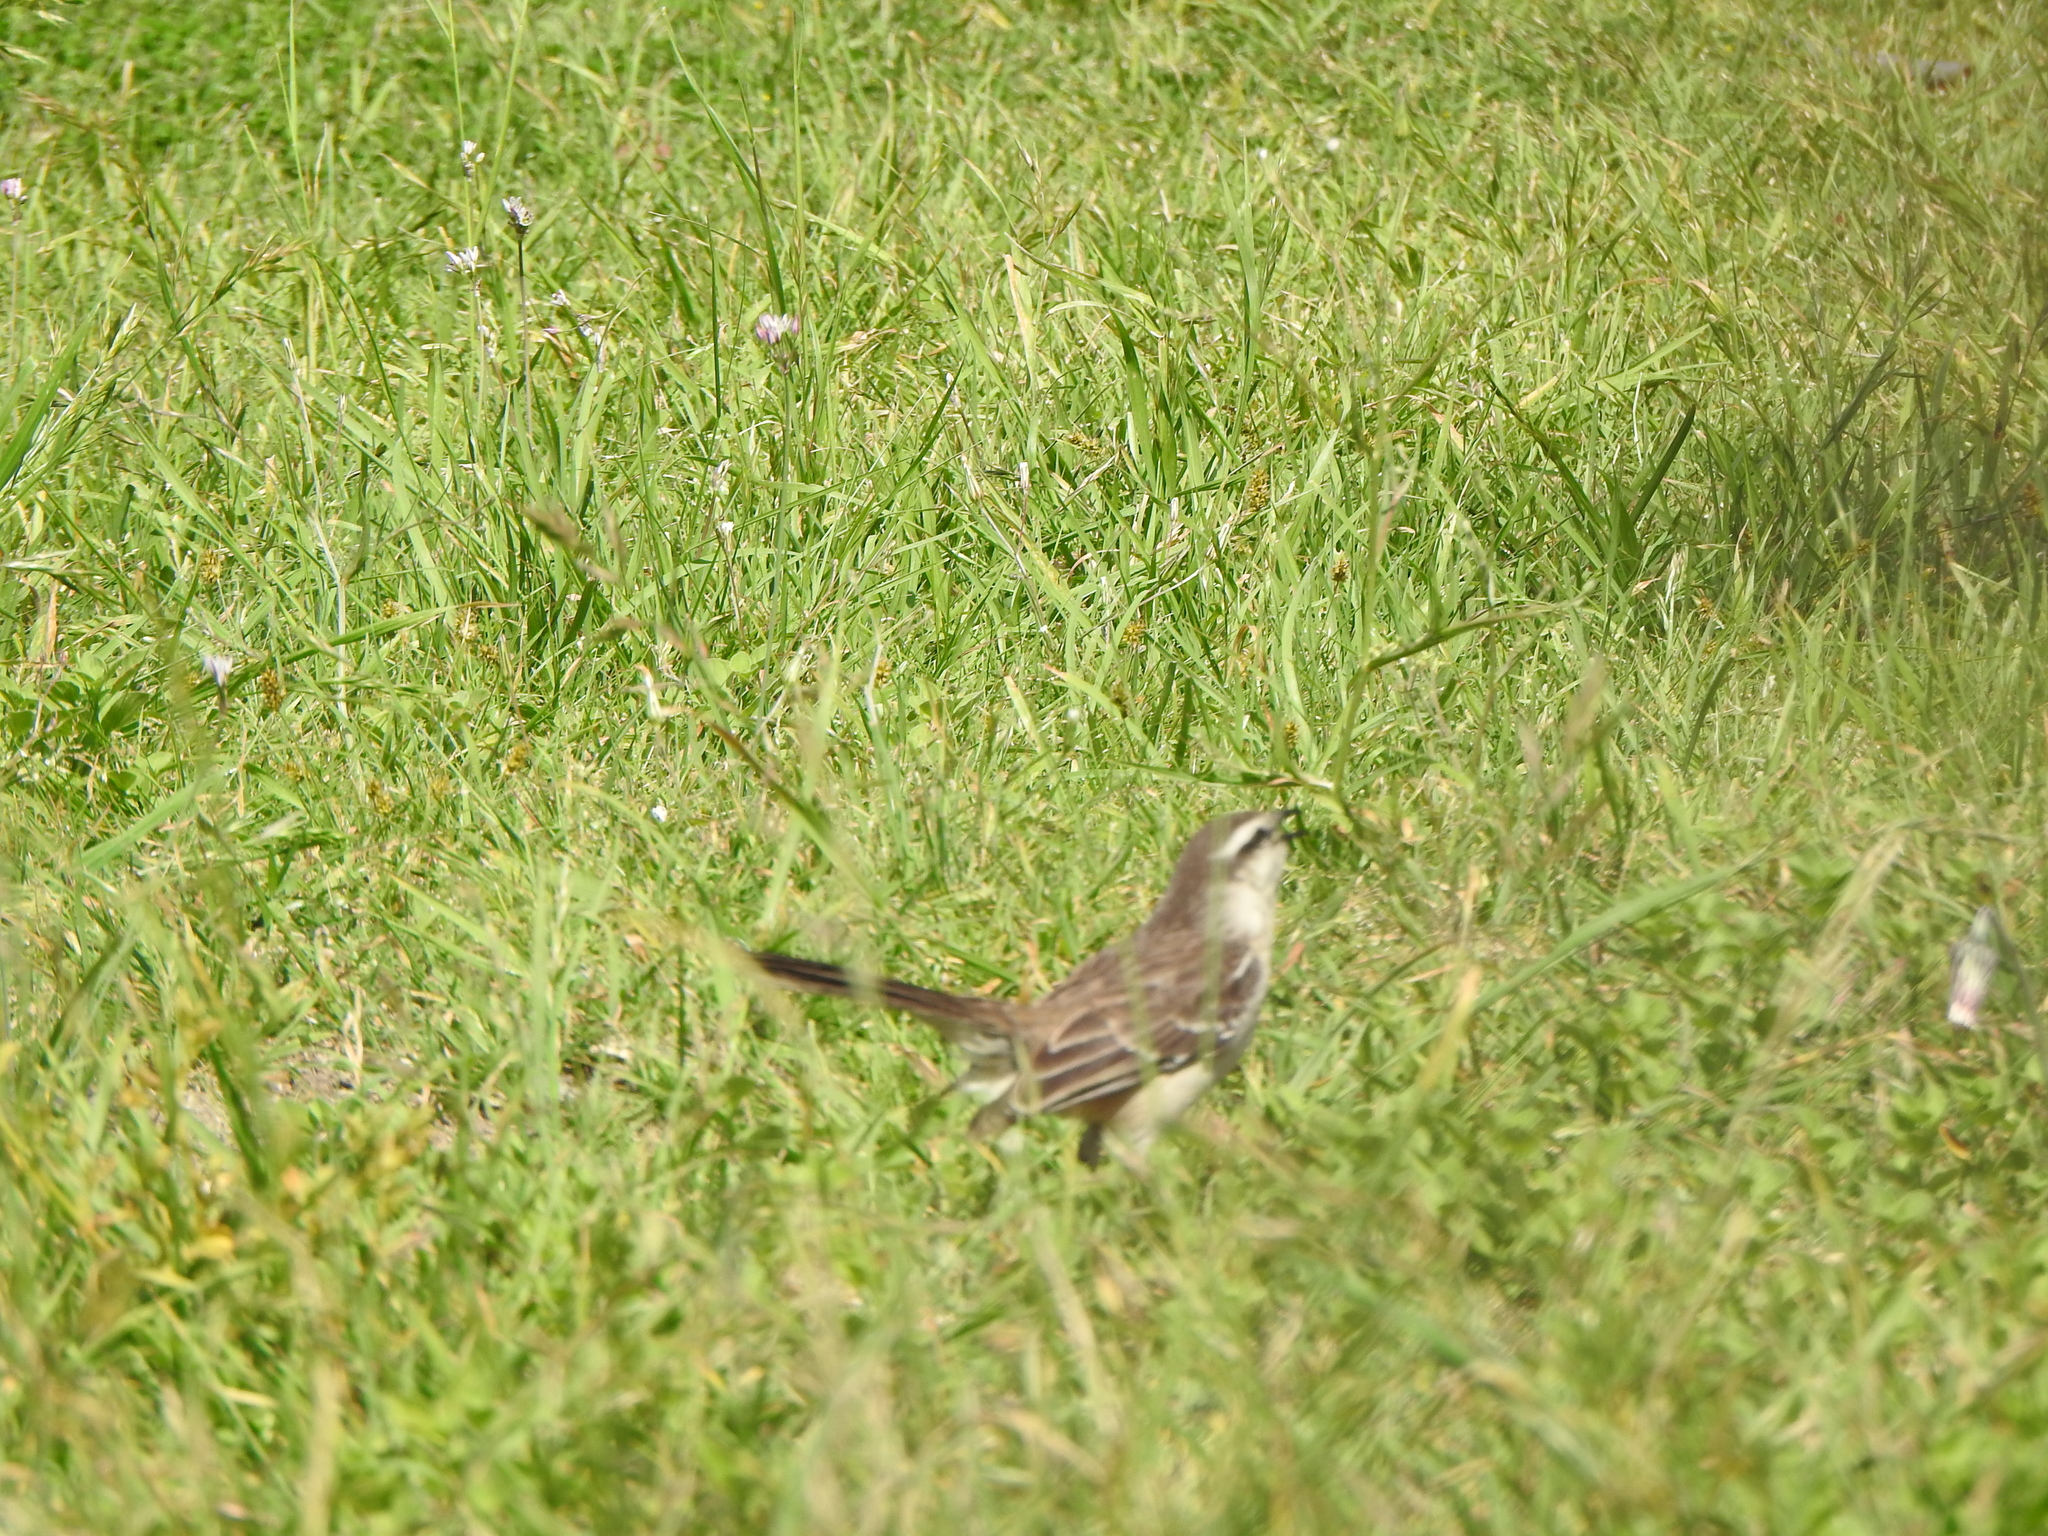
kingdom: Animalia
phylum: Chordata
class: Aves
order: Passeriformes
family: Mimidae
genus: Mimus
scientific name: Mimus saturninus
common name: Chalk-browed mockingbird
